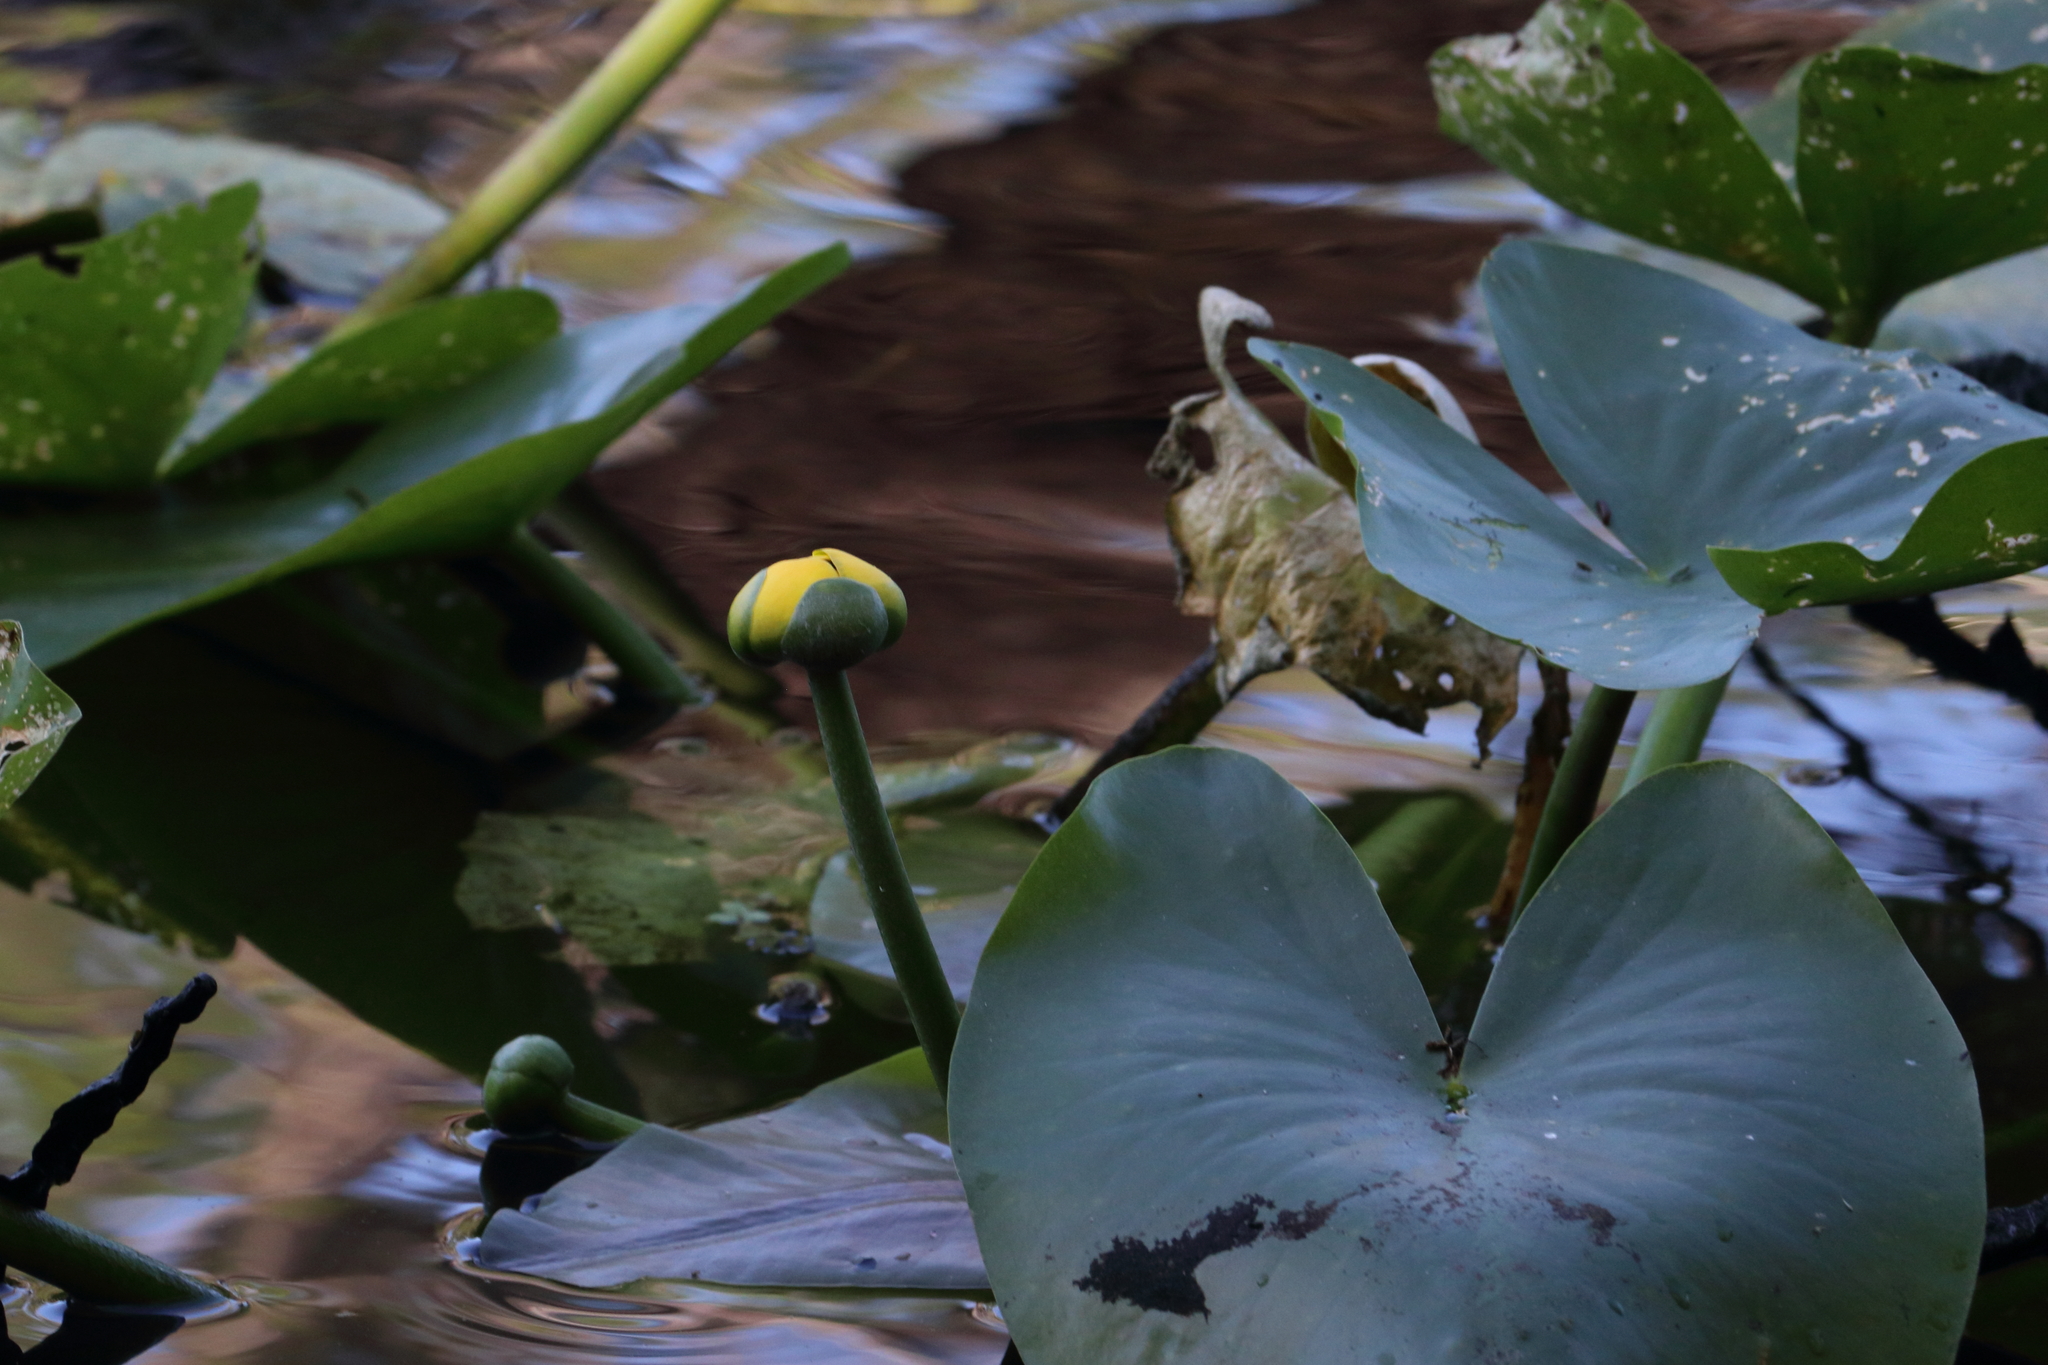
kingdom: Plantae
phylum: Tracheophyta
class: Magnoliopsida
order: Nymphaeales
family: Nymphaeaceae
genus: Nuphar
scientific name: Nuphar advena
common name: Spatter-dock
